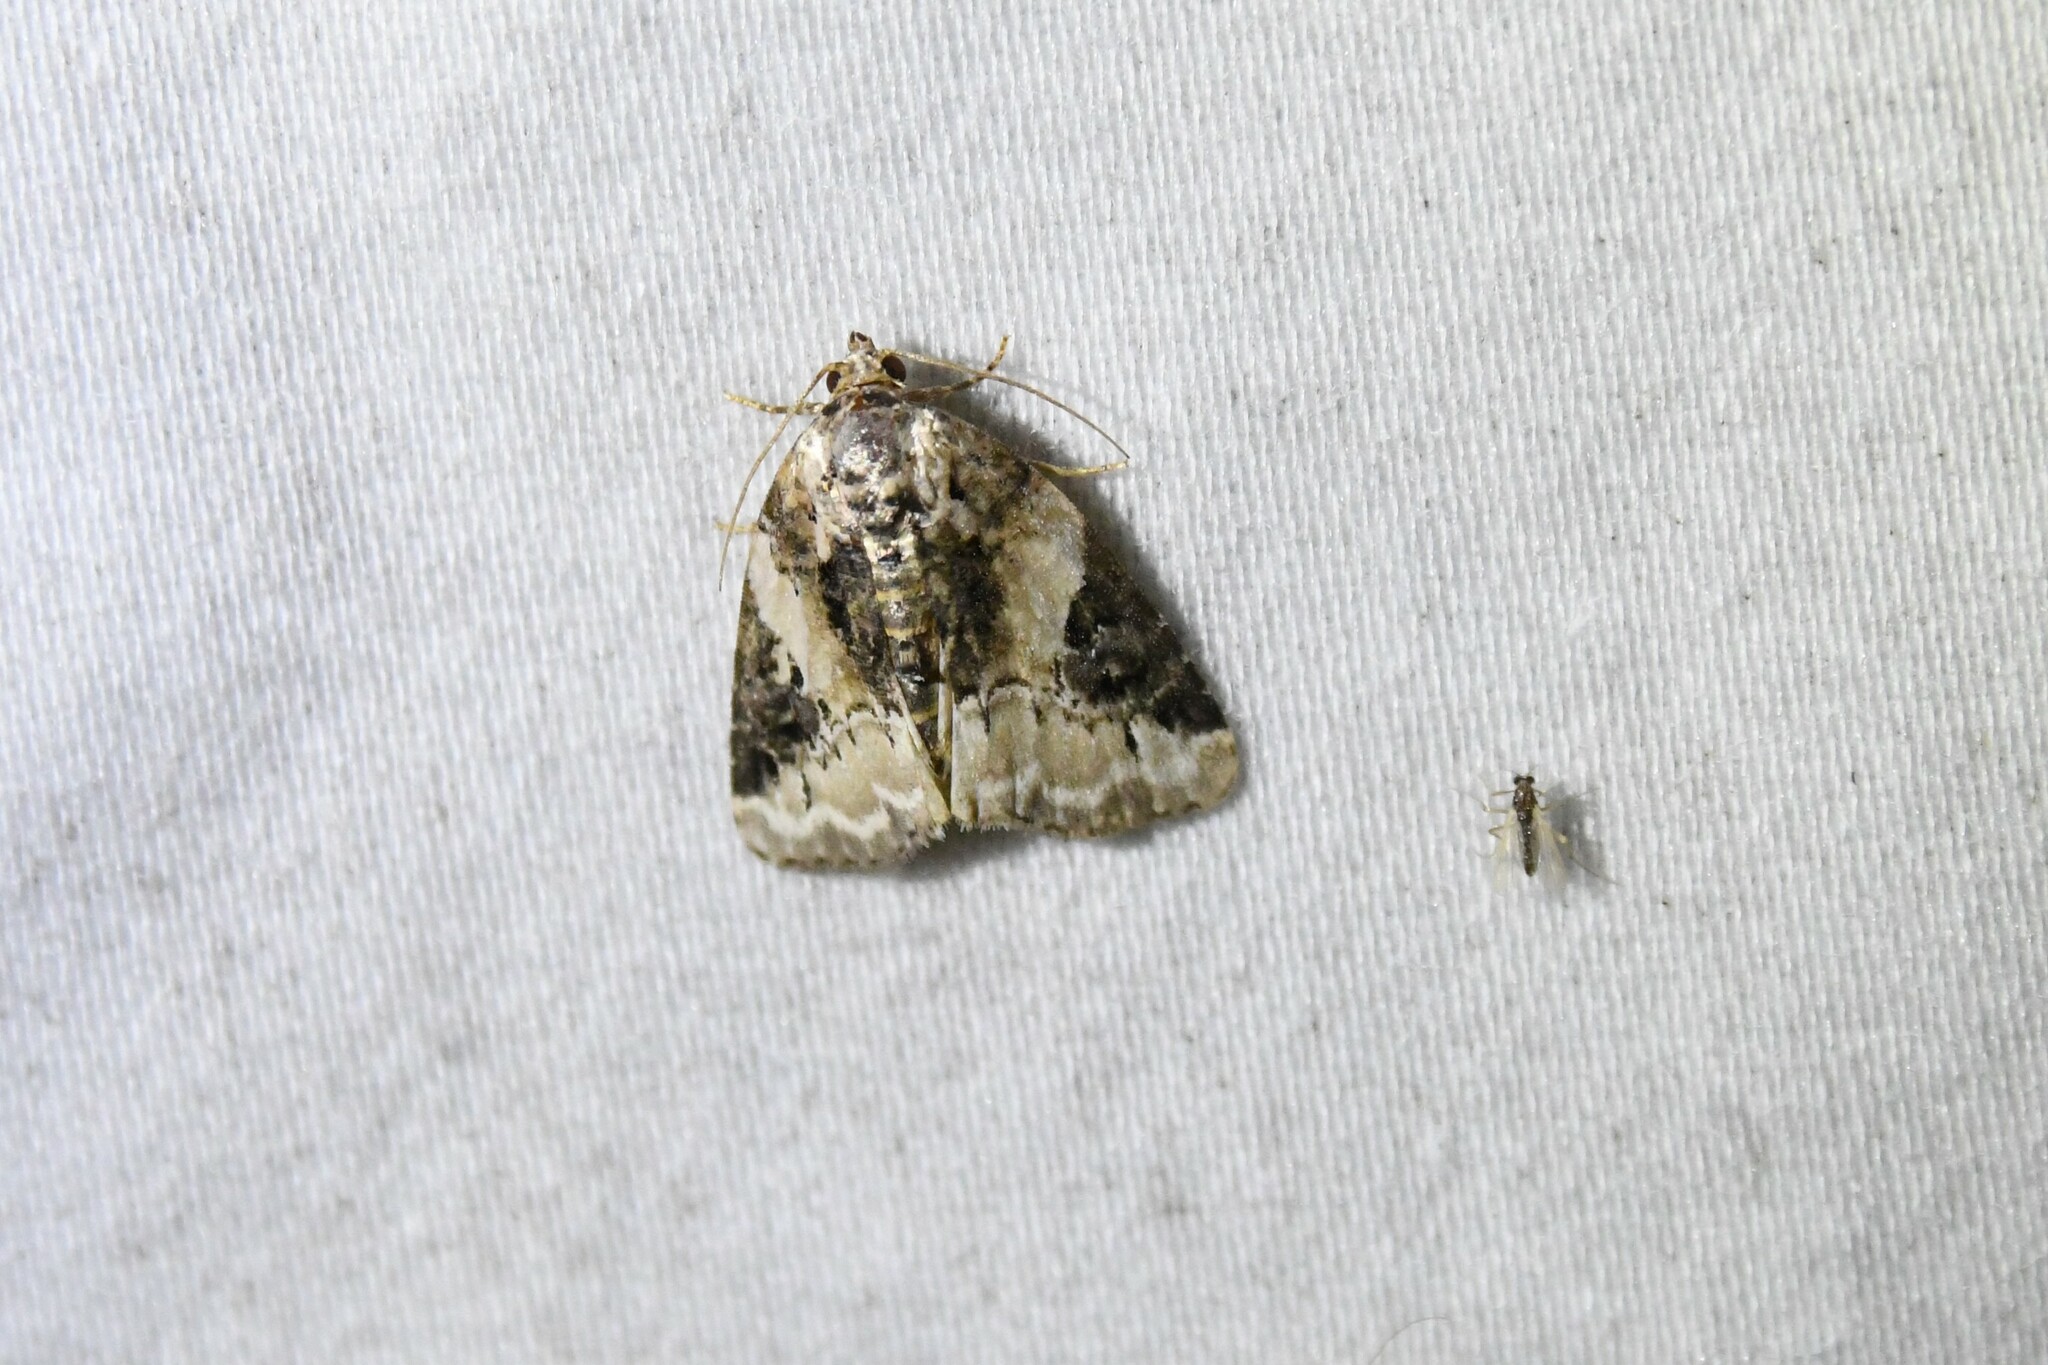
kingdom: Animalia
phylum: Arthropoda
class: Insecta
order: Lepidoptera
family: Noctuidae
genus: Pseudeustrotia
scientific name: Pseudeustrotia carneola
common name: Pink-barred lithacodia moth
